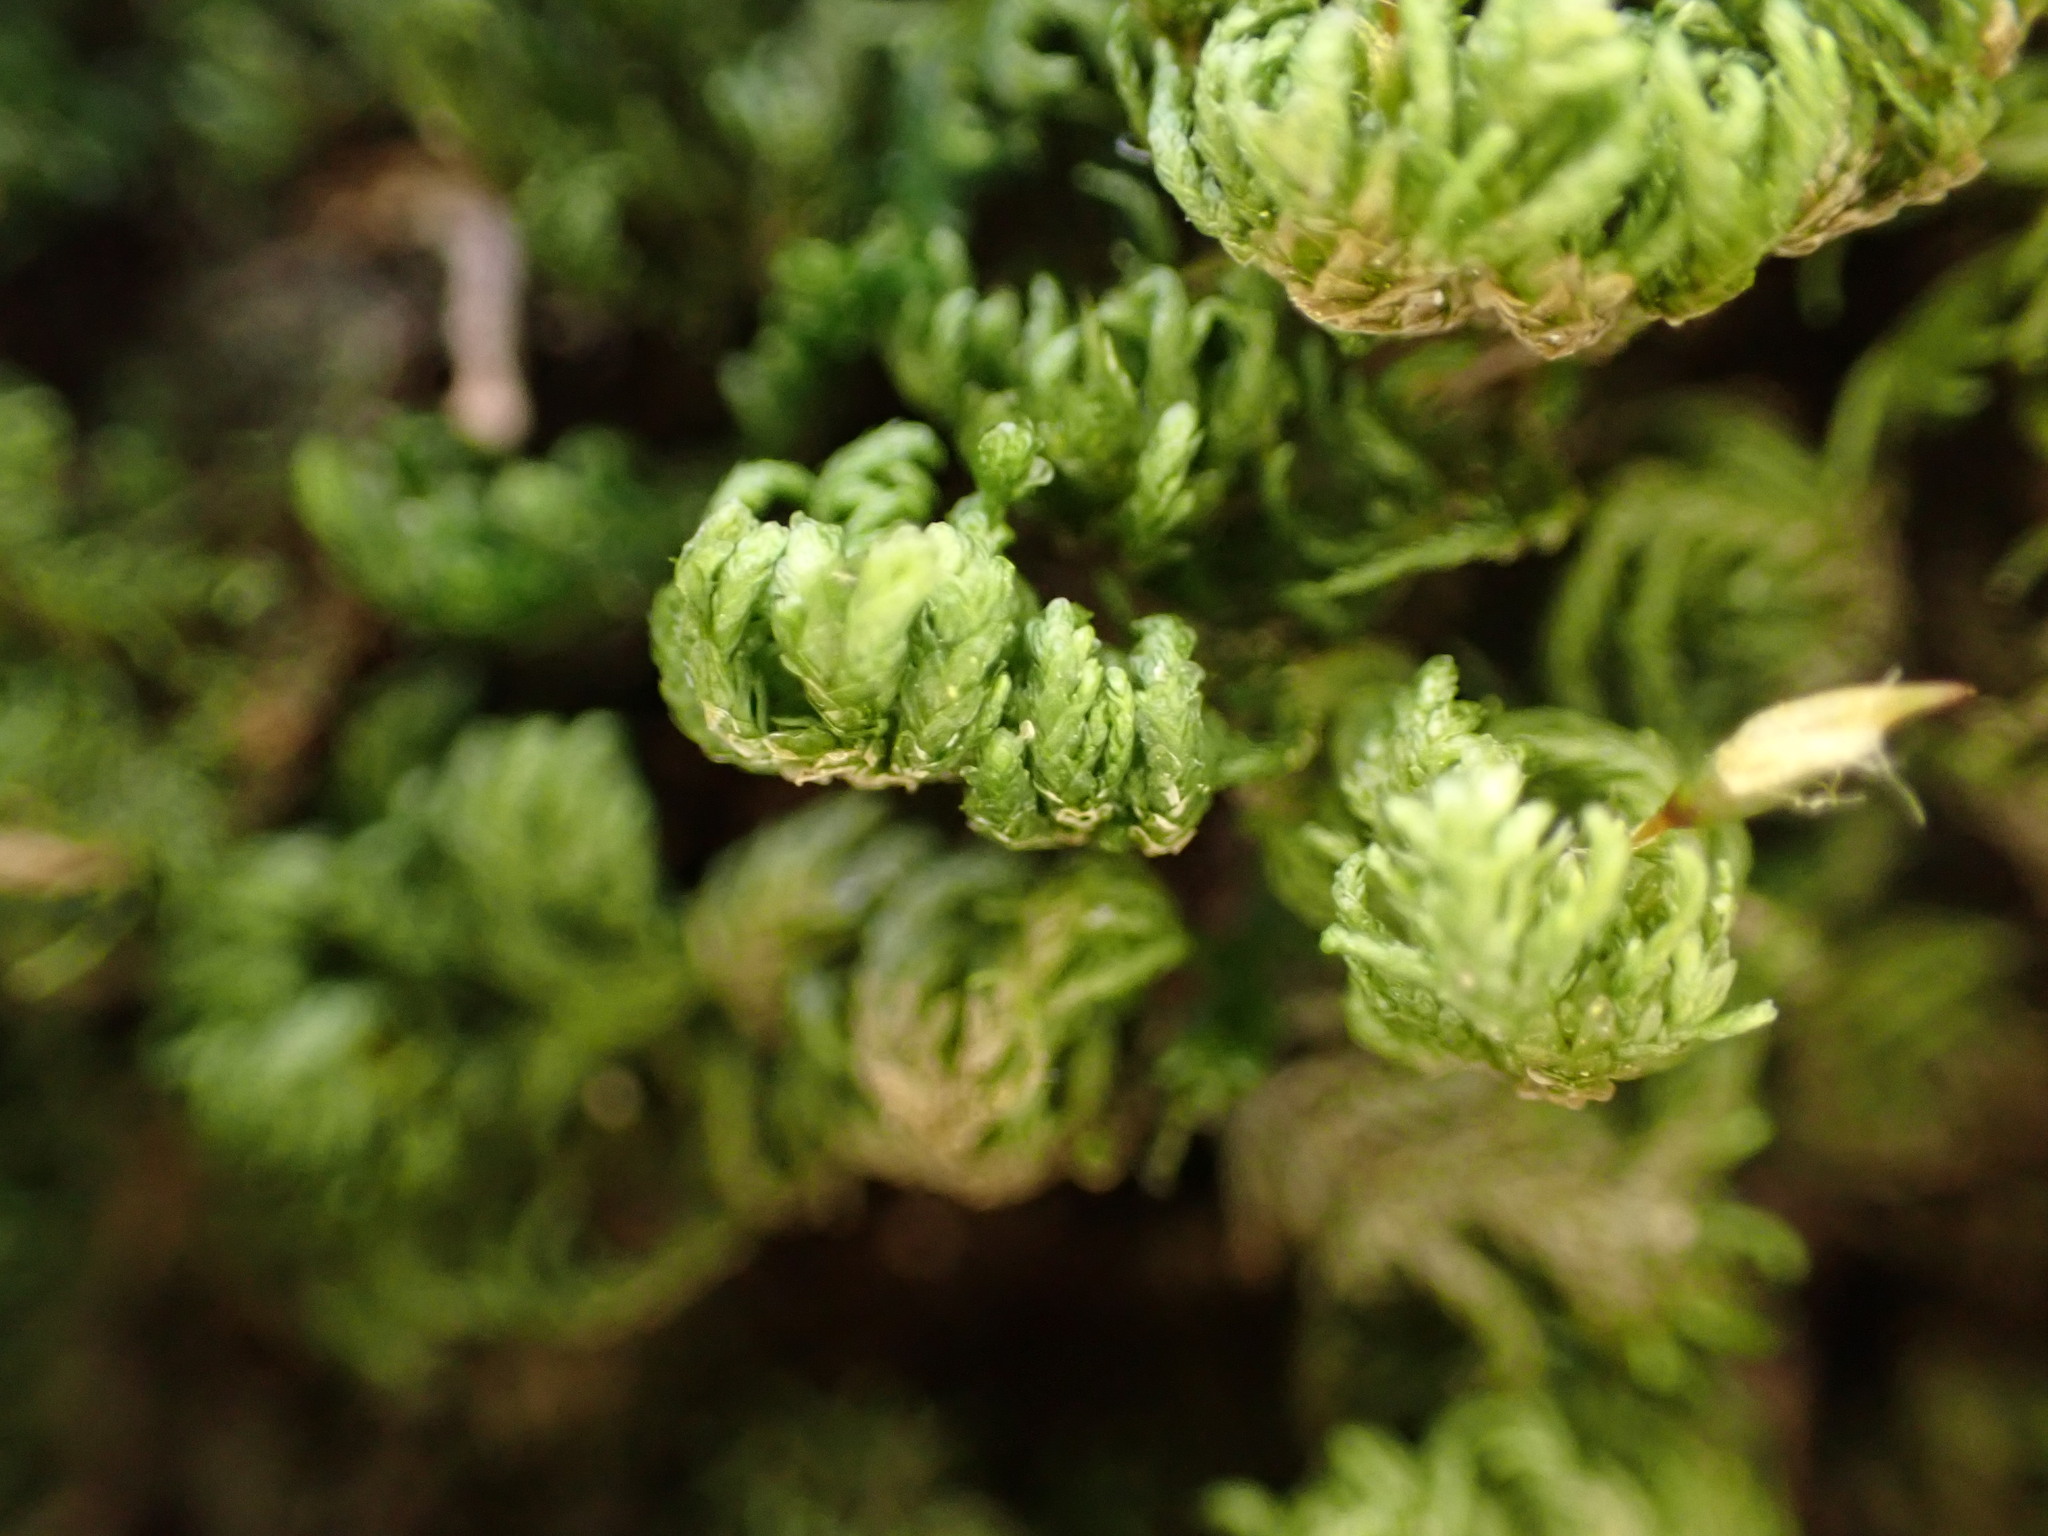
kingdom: Plantae
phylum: Bryophyta
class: Bryopsida
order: Hypnales
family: Neckeraceae
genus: Leptodon
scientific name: Leptodon smithii
